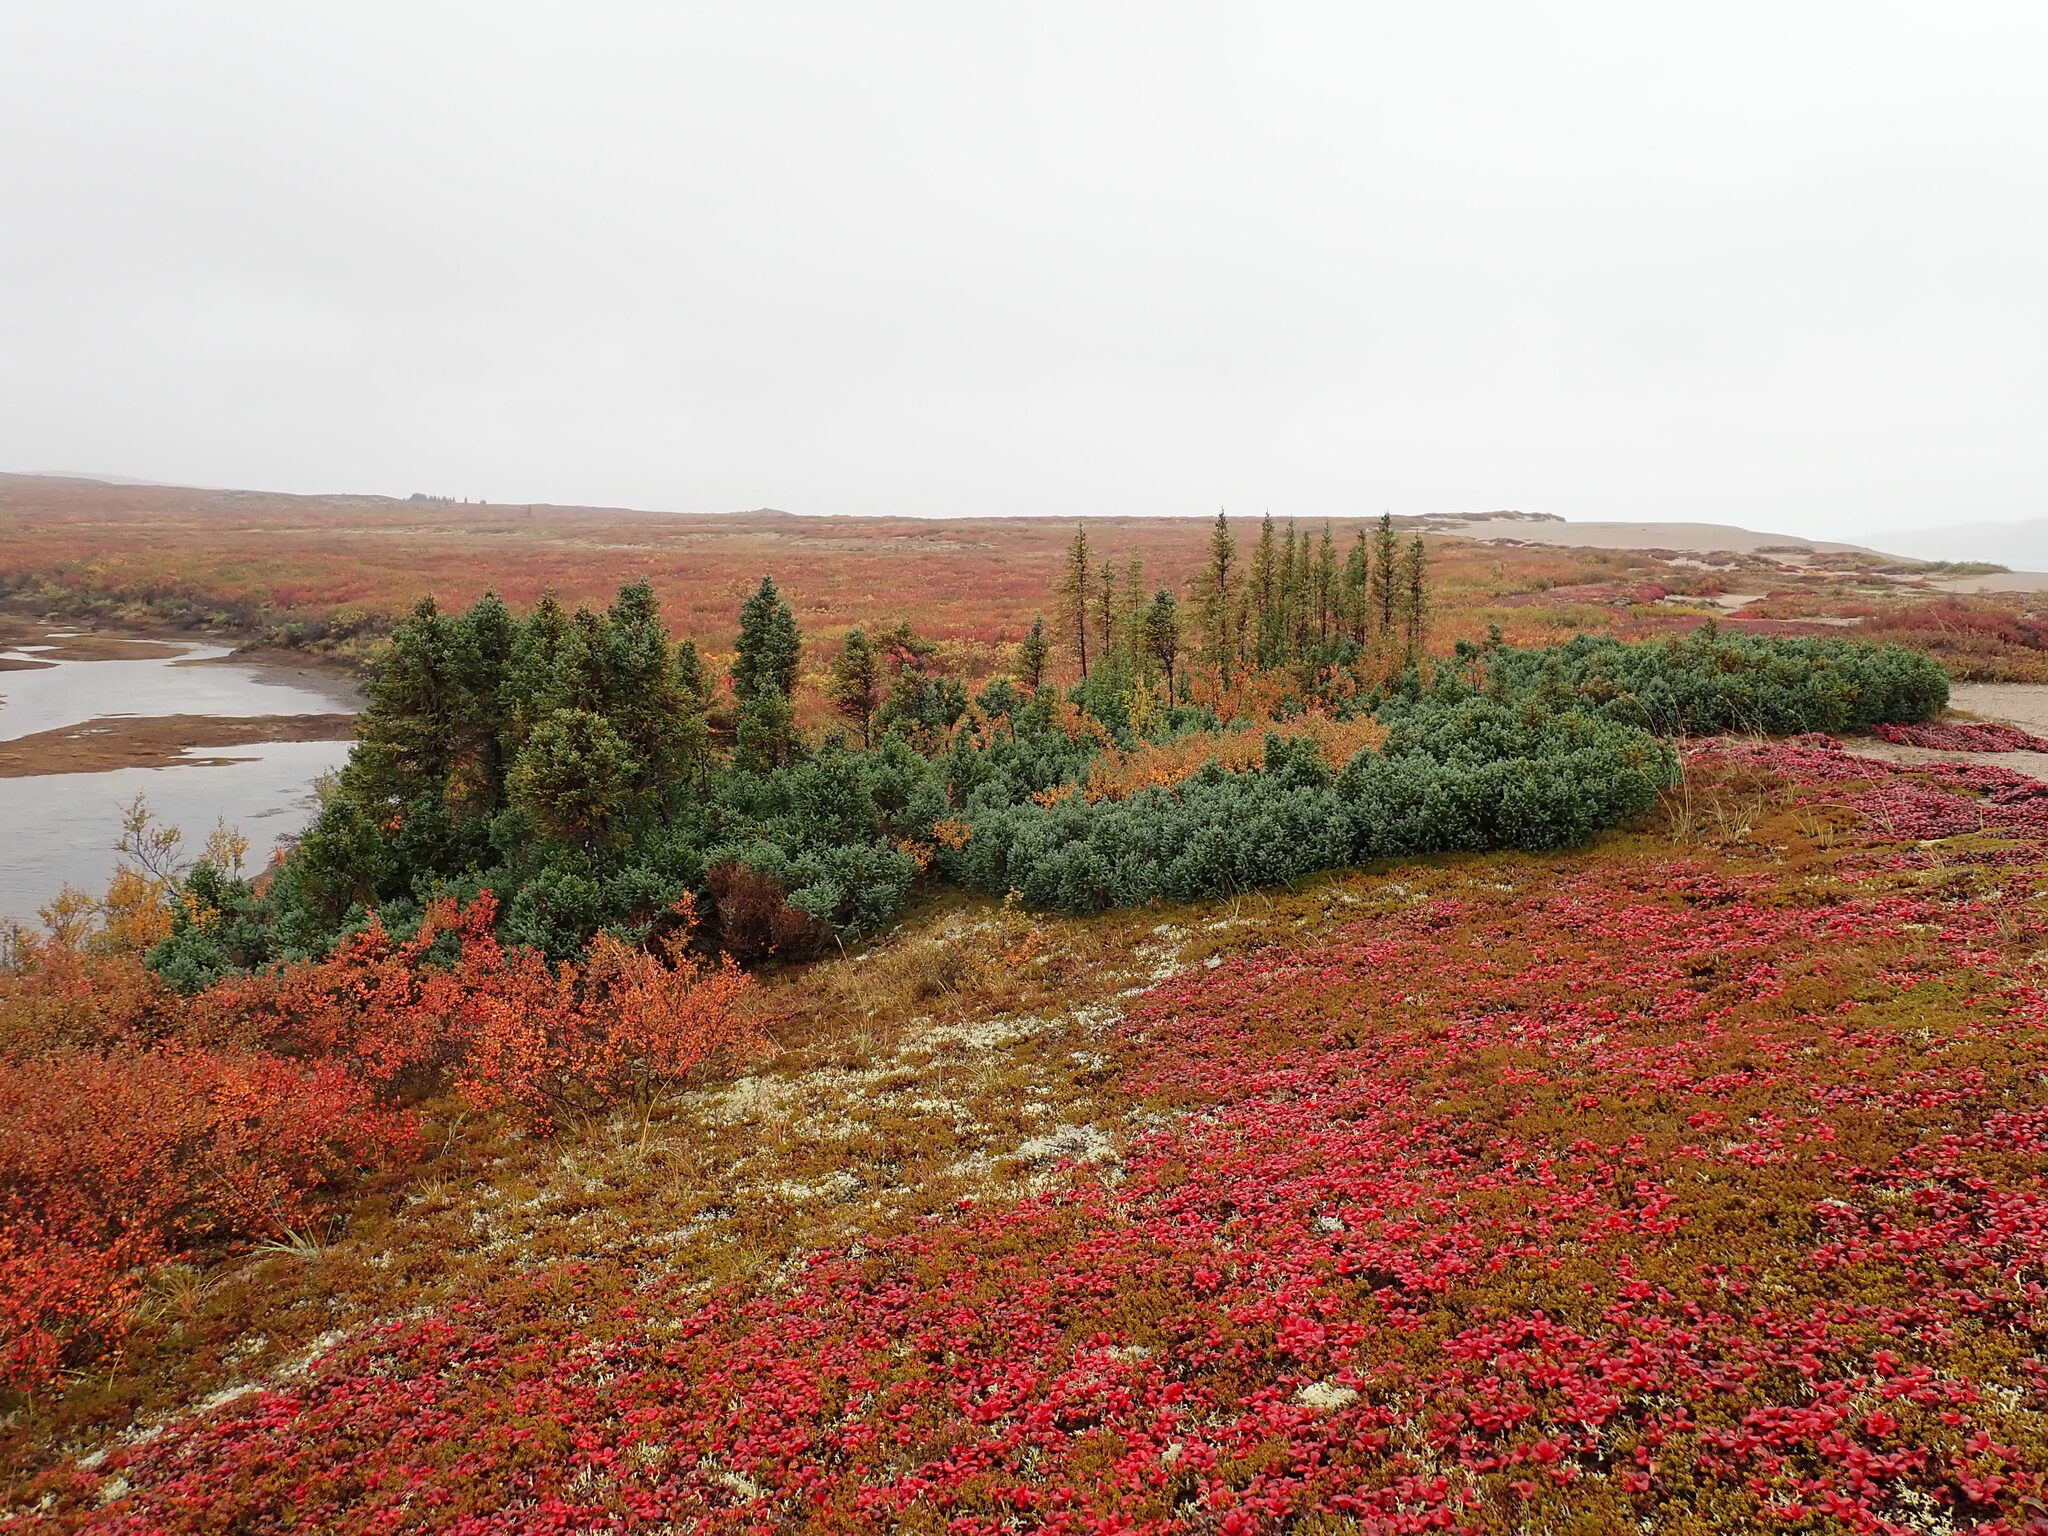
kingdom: Plantae
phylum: Tracheophyta
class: Pinopsida
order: Pinales
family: Pinaceae
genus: Picea
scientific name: Picea mariana
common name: Black spruce
